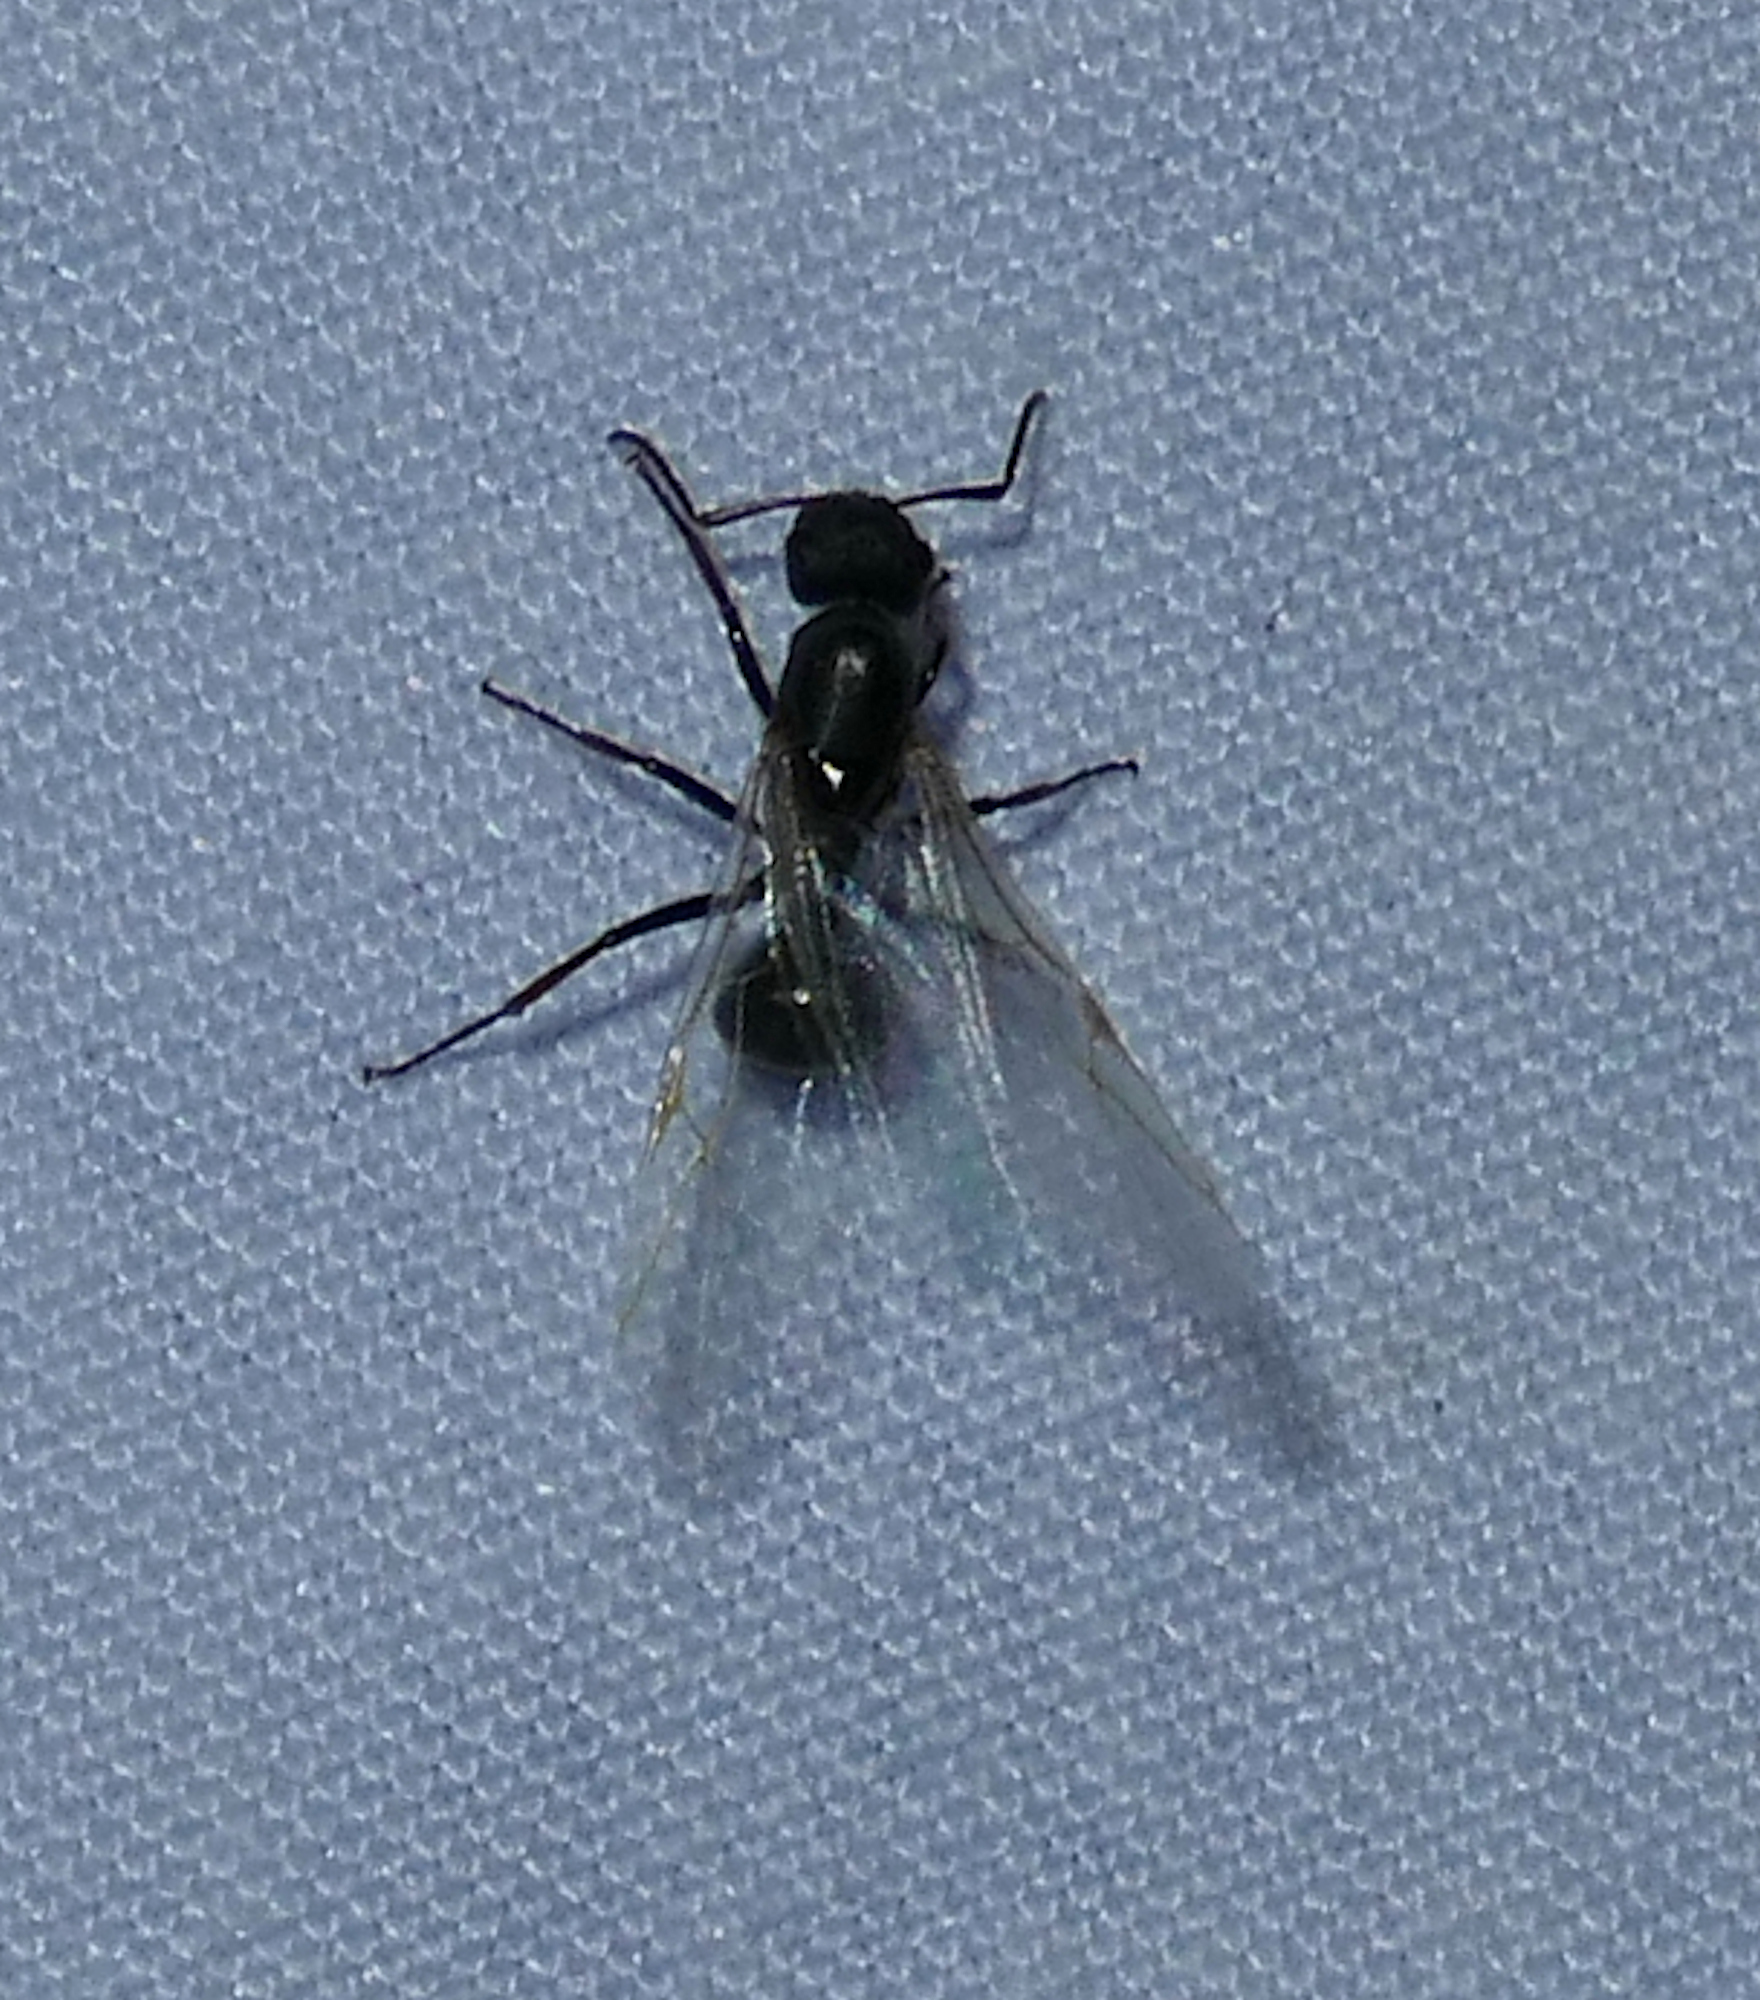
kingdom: Animalia
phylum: Arthropoda
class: Insecta
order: Hymenoptera
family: Formicidae
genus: Camponotus
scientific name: Camponotus mina
